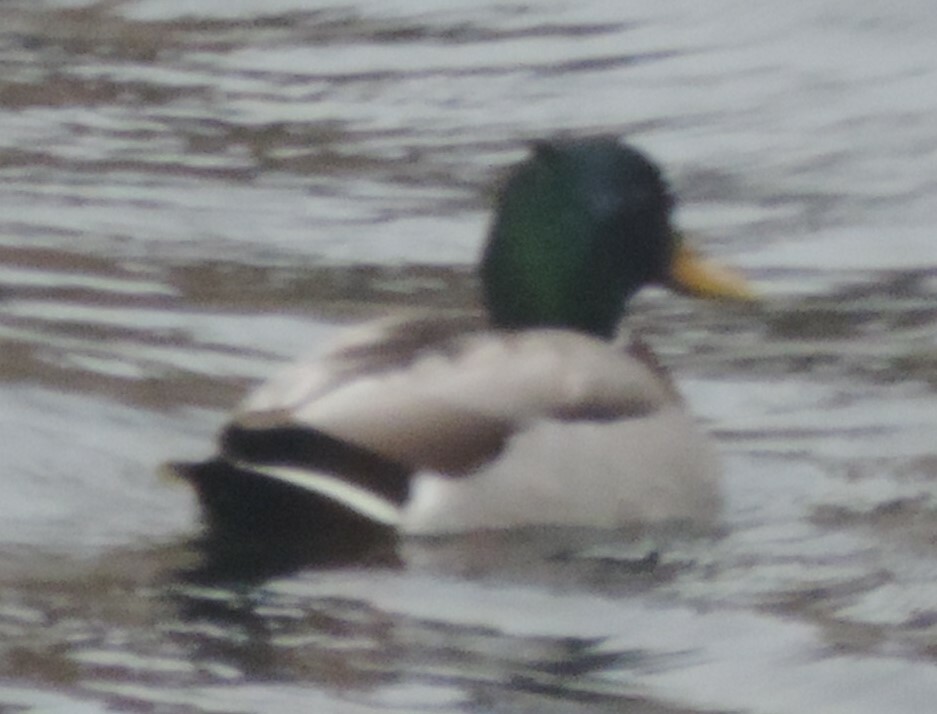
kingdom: Animalia
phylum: Chordata
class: Aves
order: Anseriformes
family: Anatidae
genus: Anas
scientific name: Anas platyrhynchos
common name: Mallard
